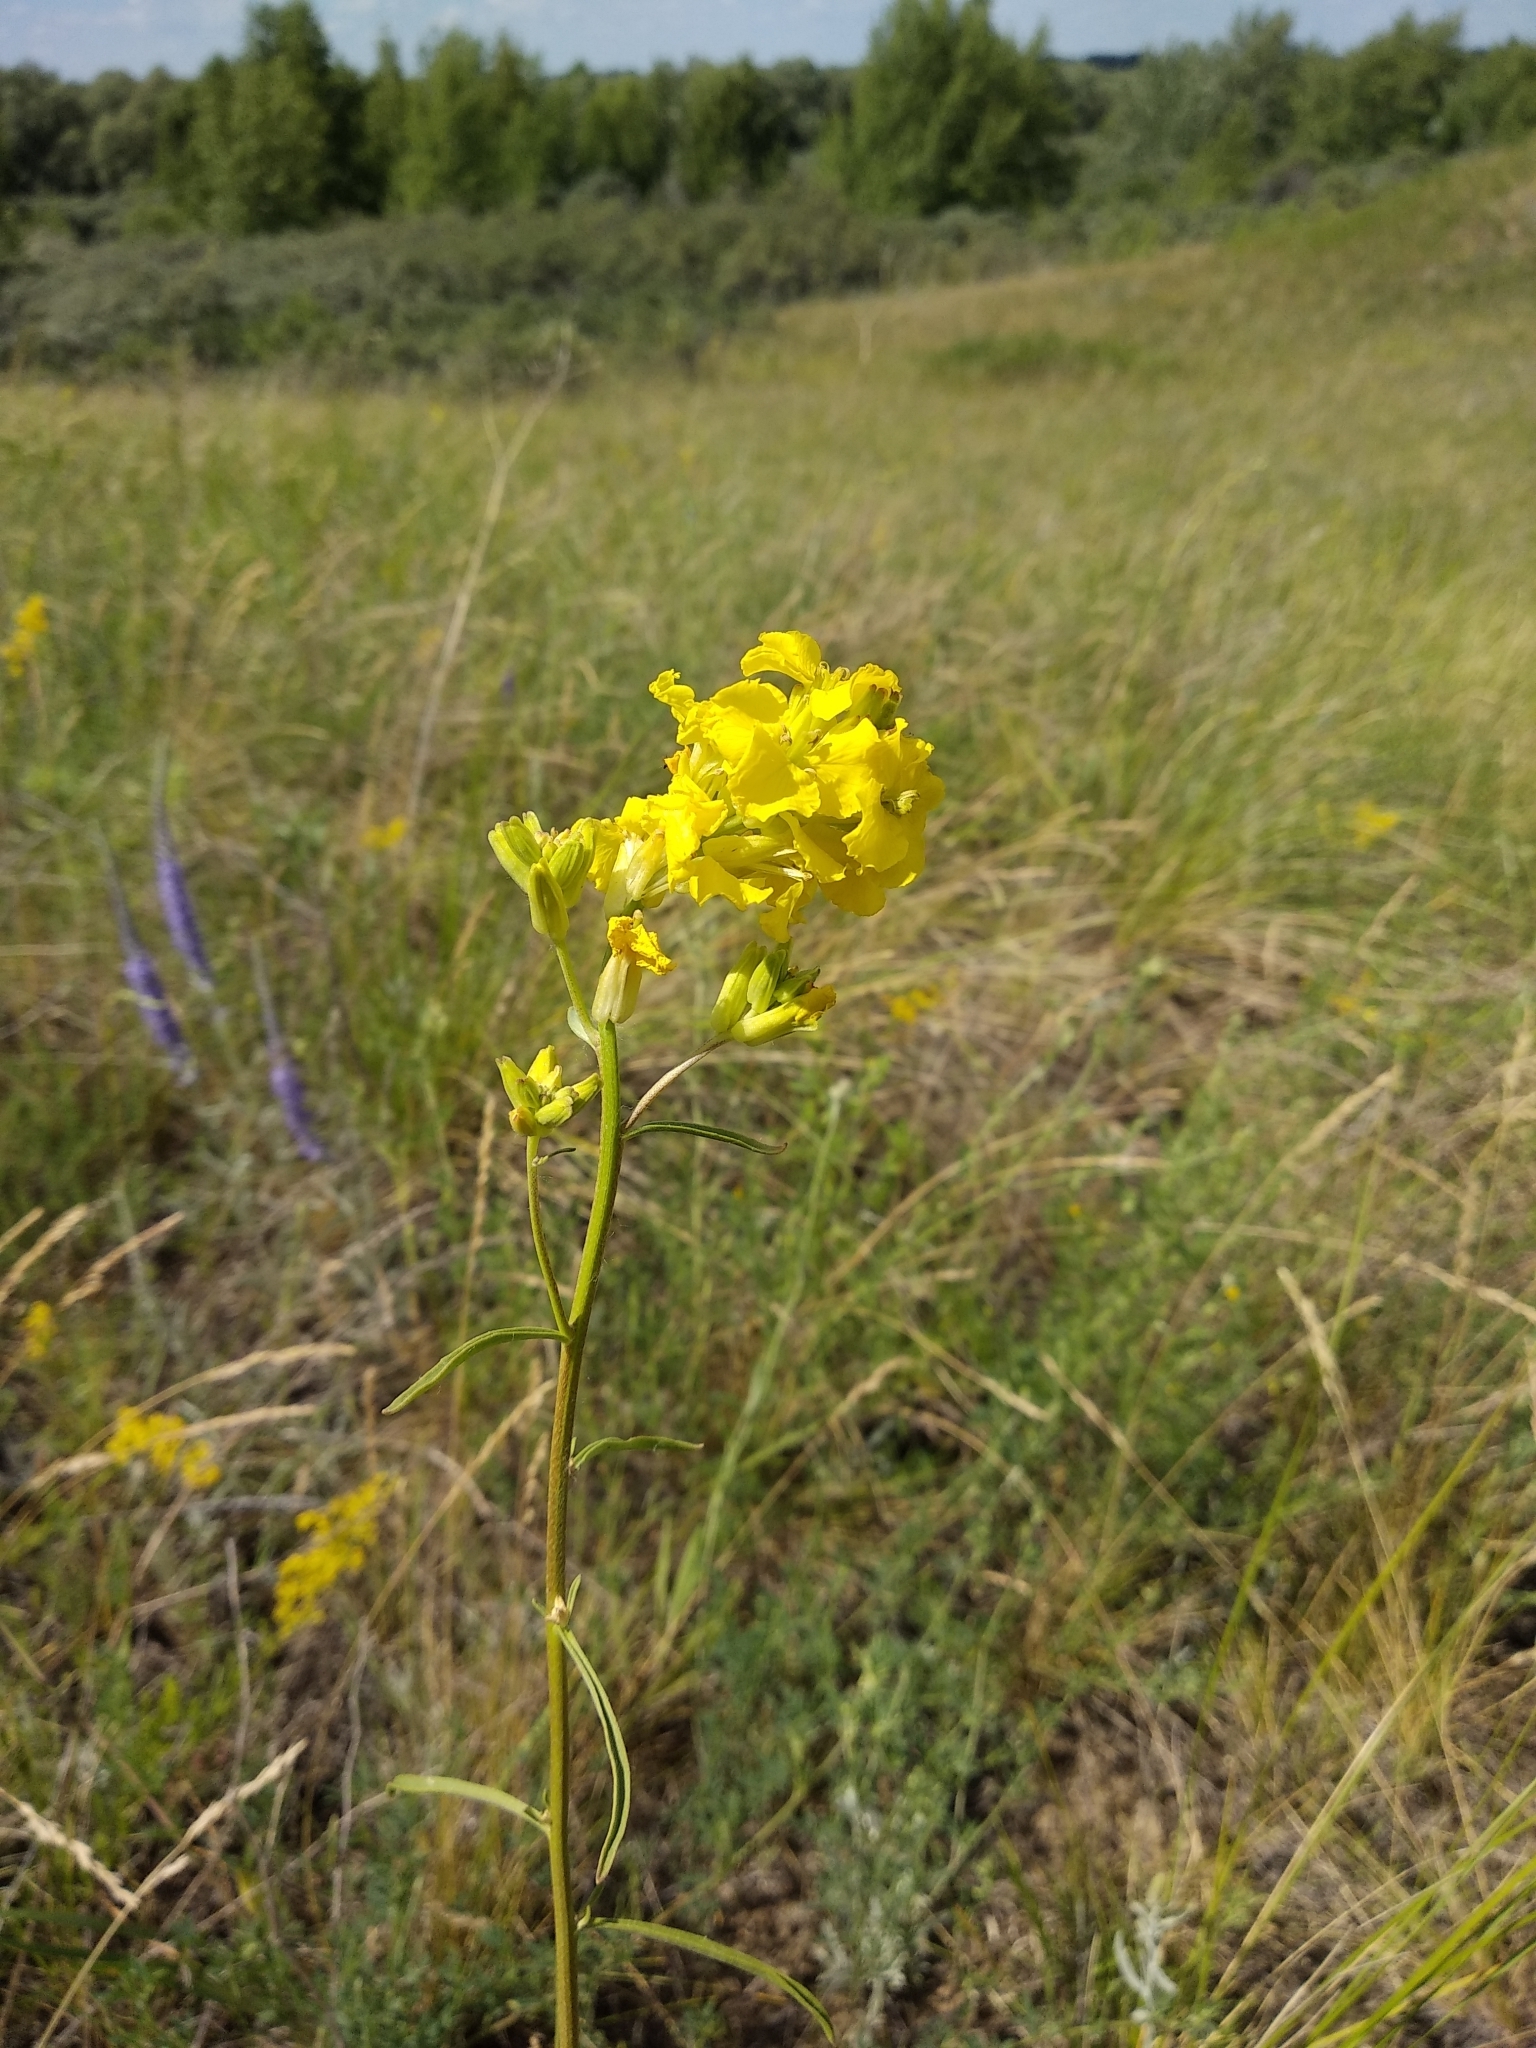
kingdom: Plantae
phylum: Tracheophyta
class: Magnoliopsida
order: Brassicales
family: Brassicaceae
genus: Erysimum
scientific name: Erysimum diffusum
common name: Diffuse wallflower
